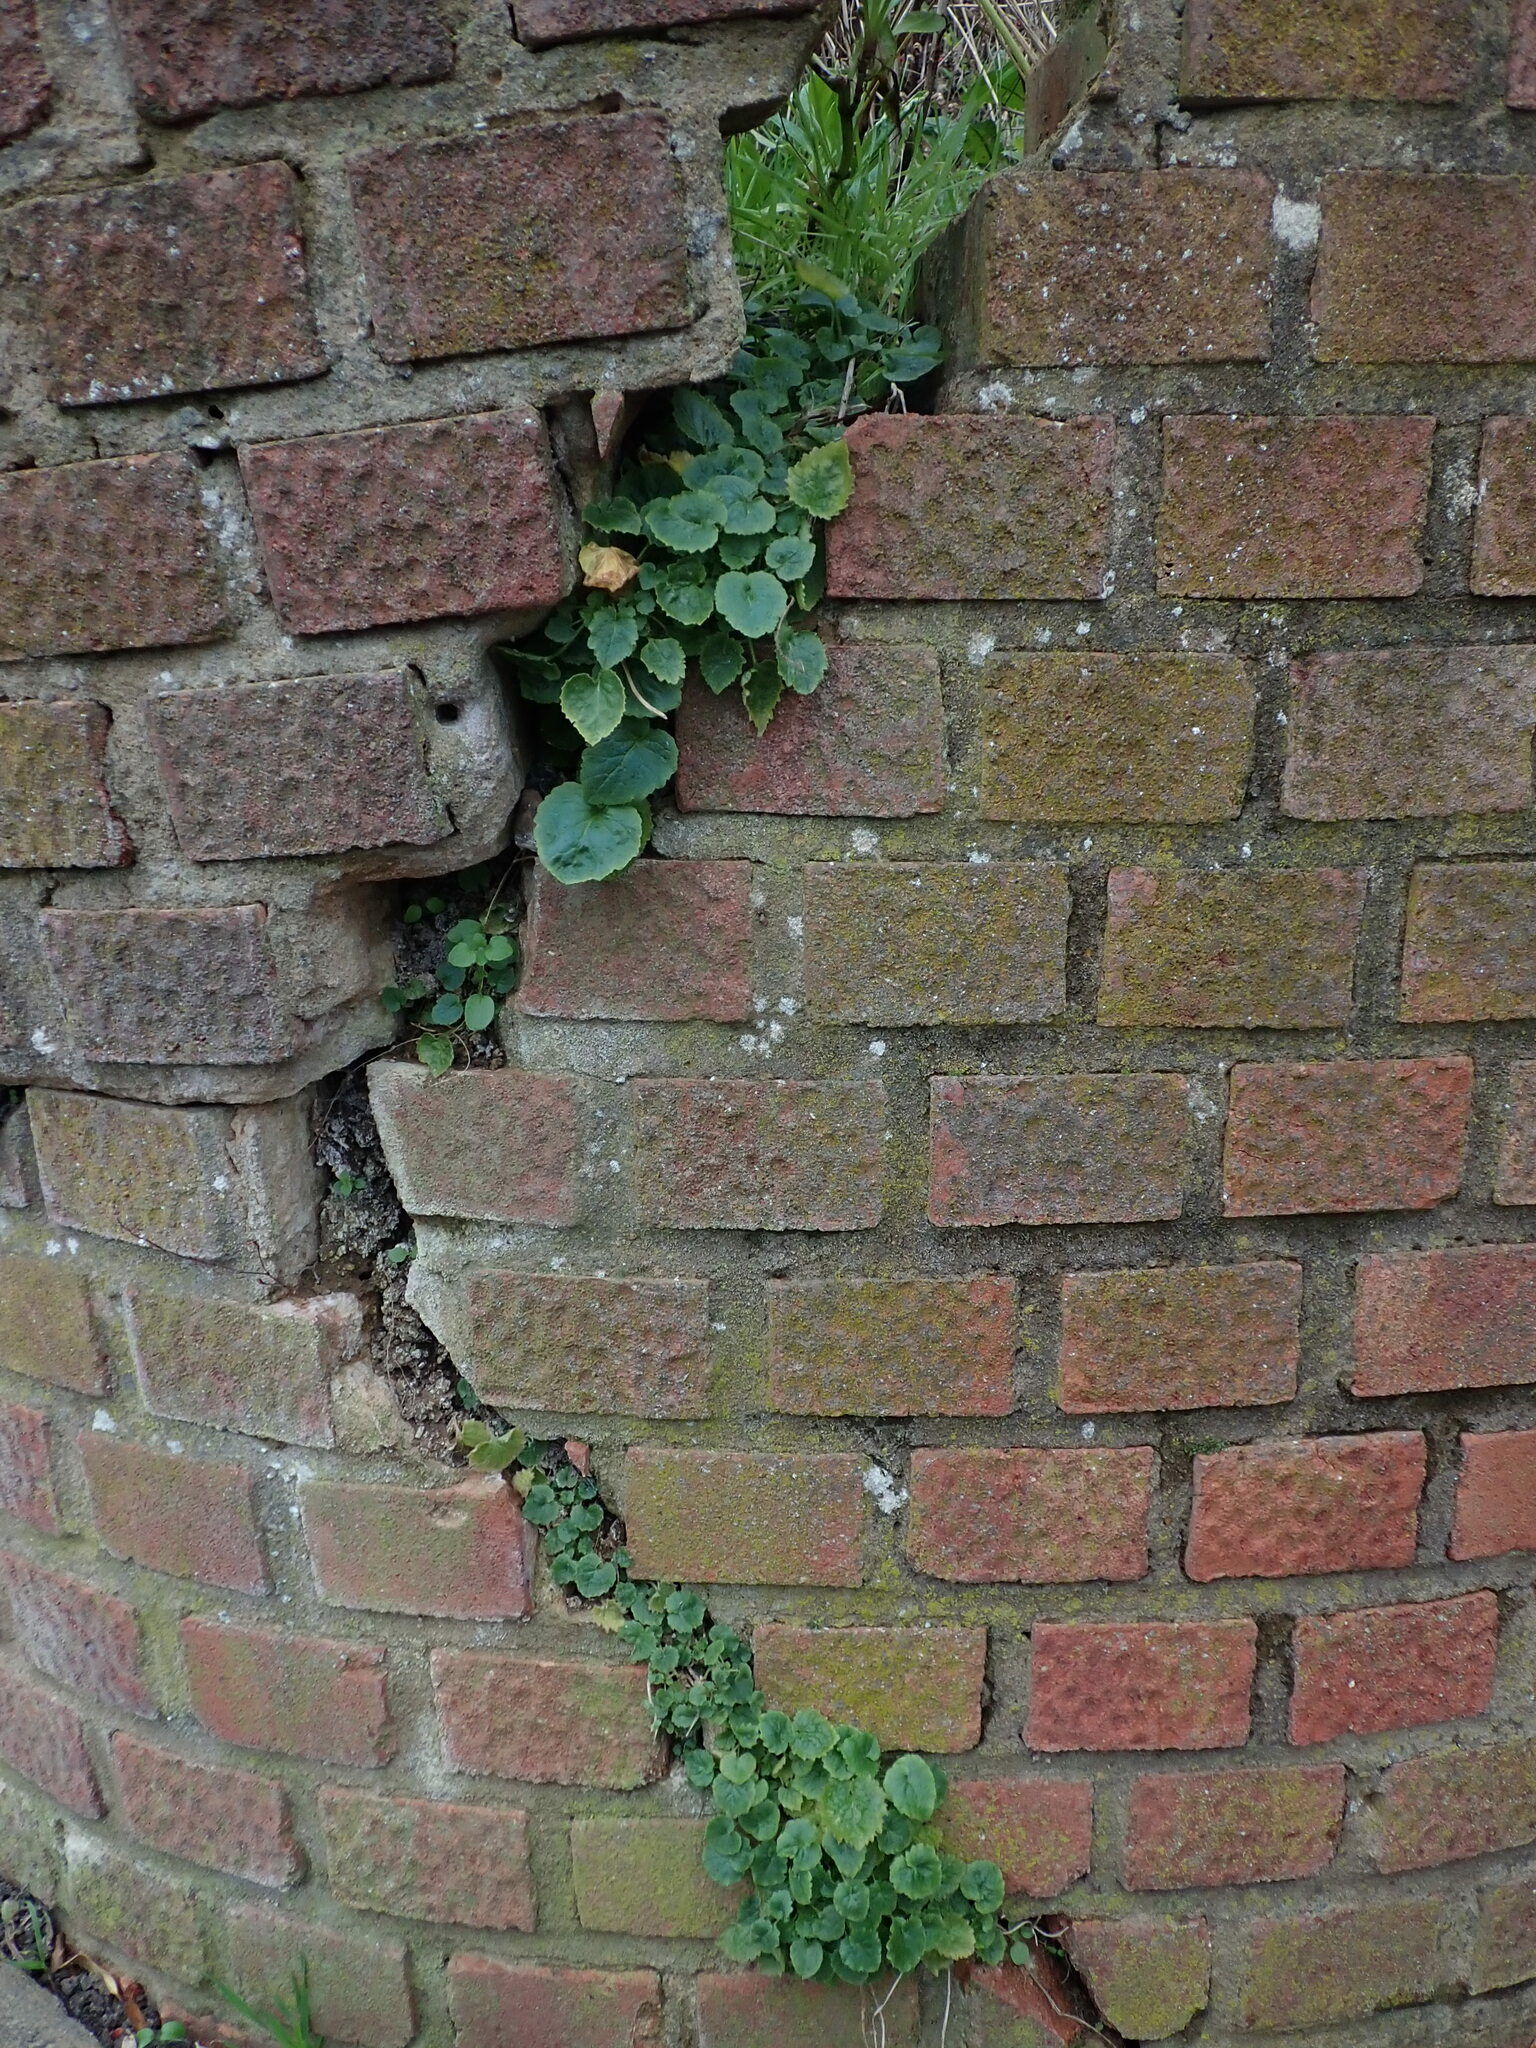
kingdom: Plantae
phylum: Tracheophyta
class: Magnoliopsida
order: Asterales
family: Campanulaceae
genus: Campanula
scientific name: Campanula poscharskyana
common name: Trailing bellflower
